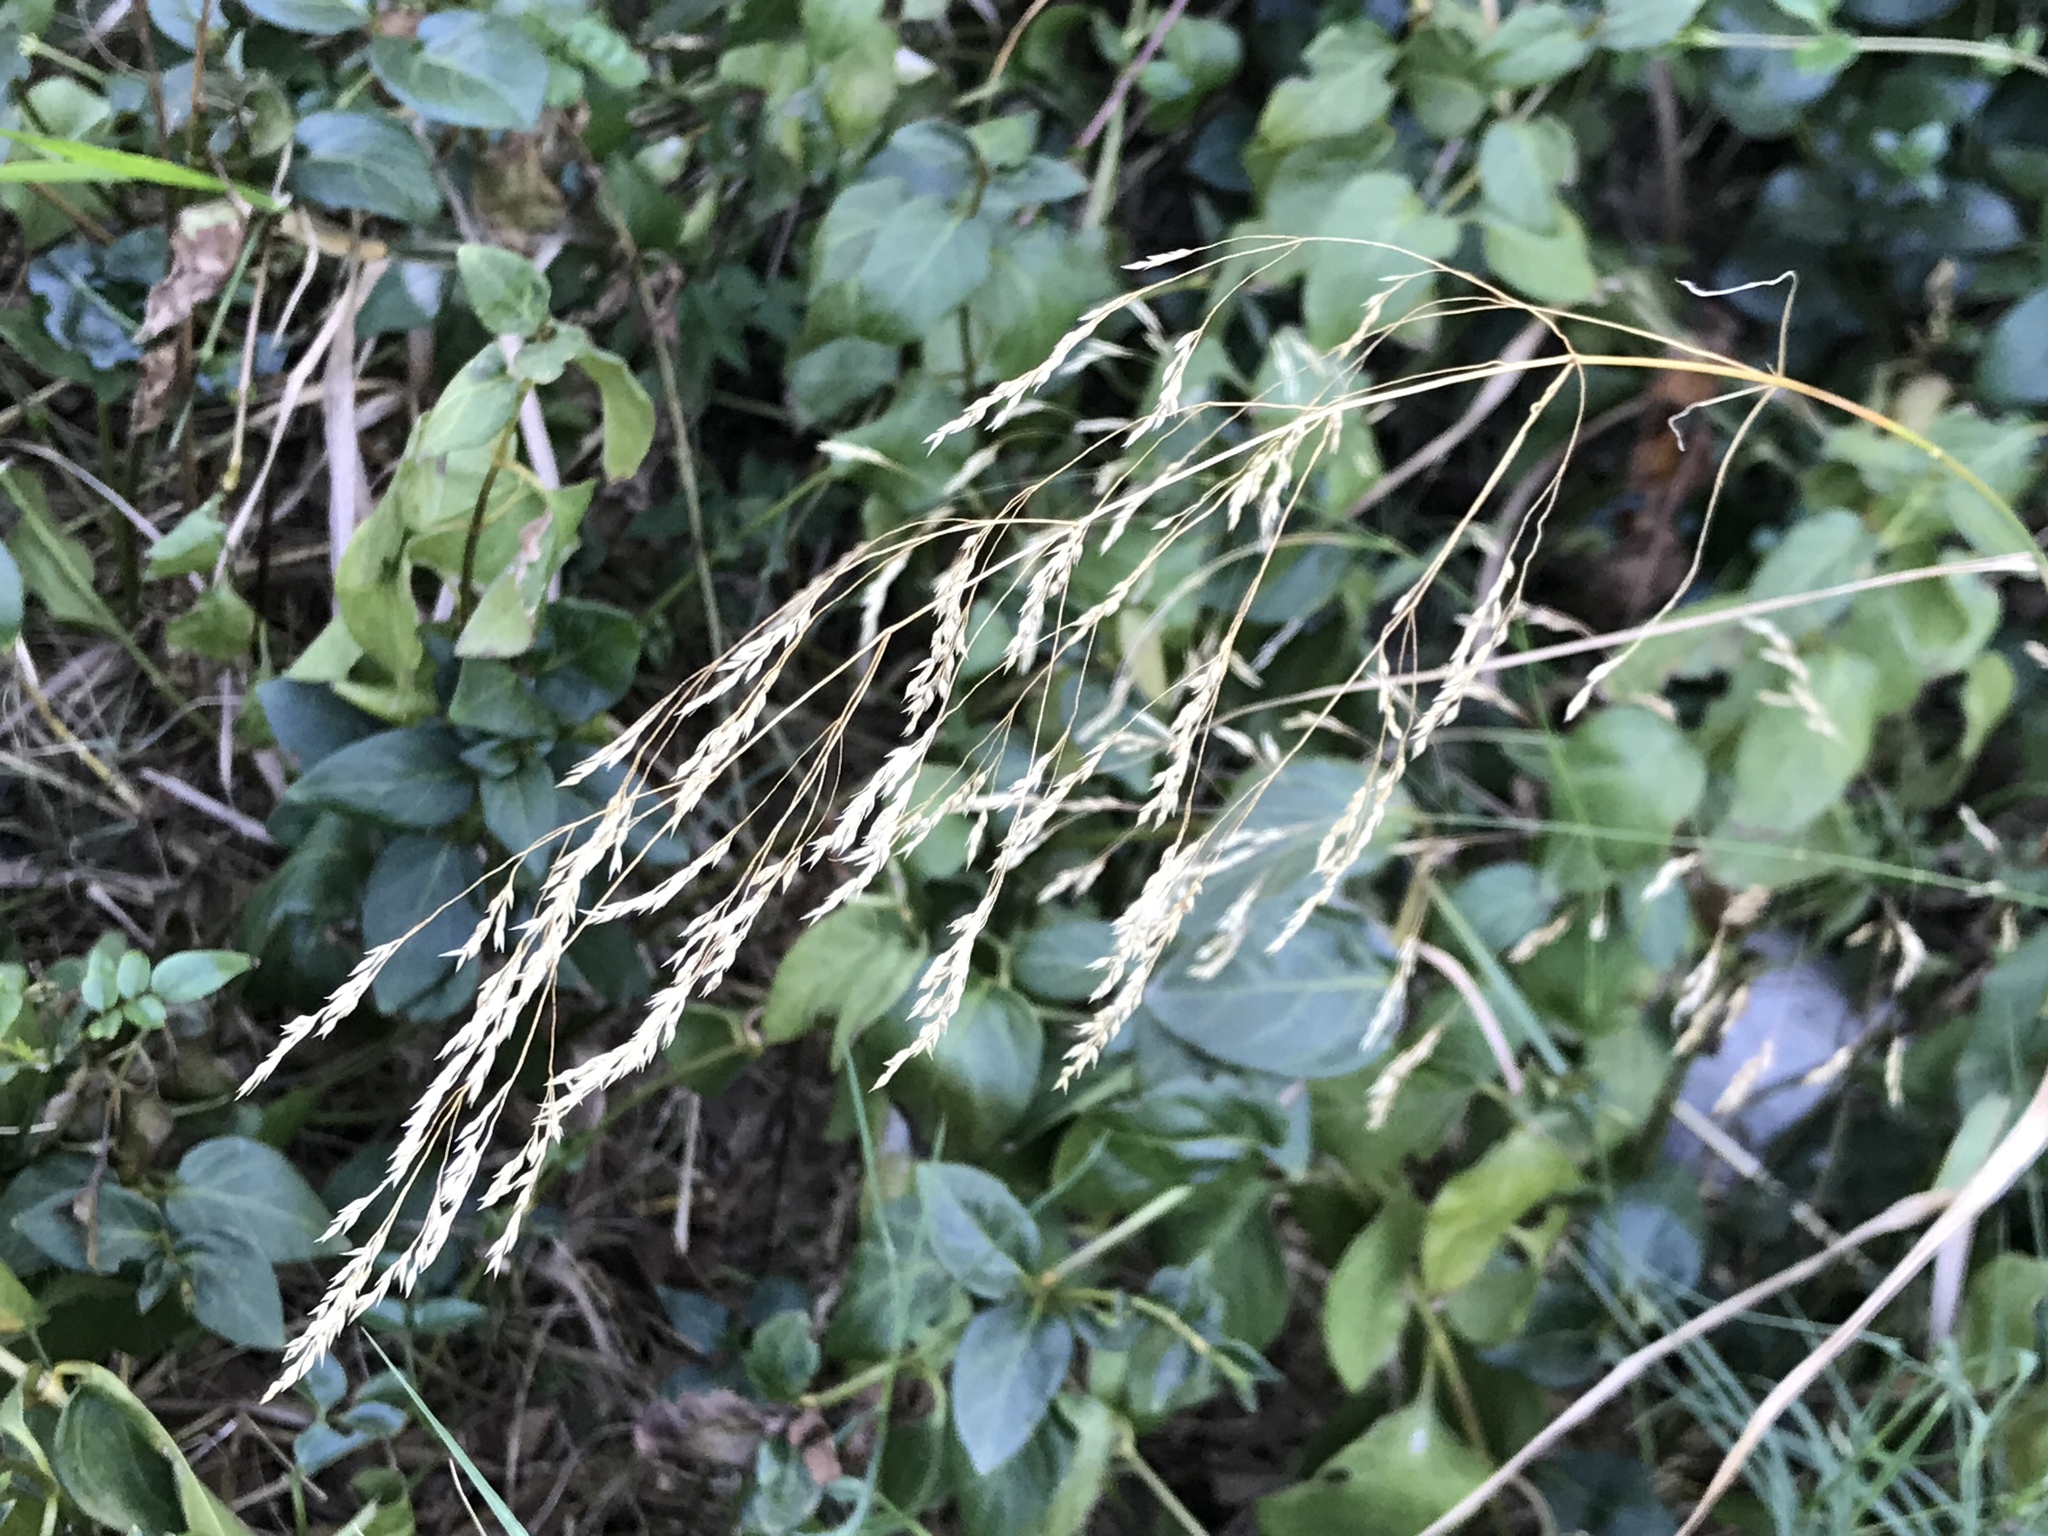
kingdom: Plantae
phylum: Tracheophyta
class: Liliopsida
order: Poales
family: Poaceae
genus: Oloptum
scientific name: Oloptum miliaceum
